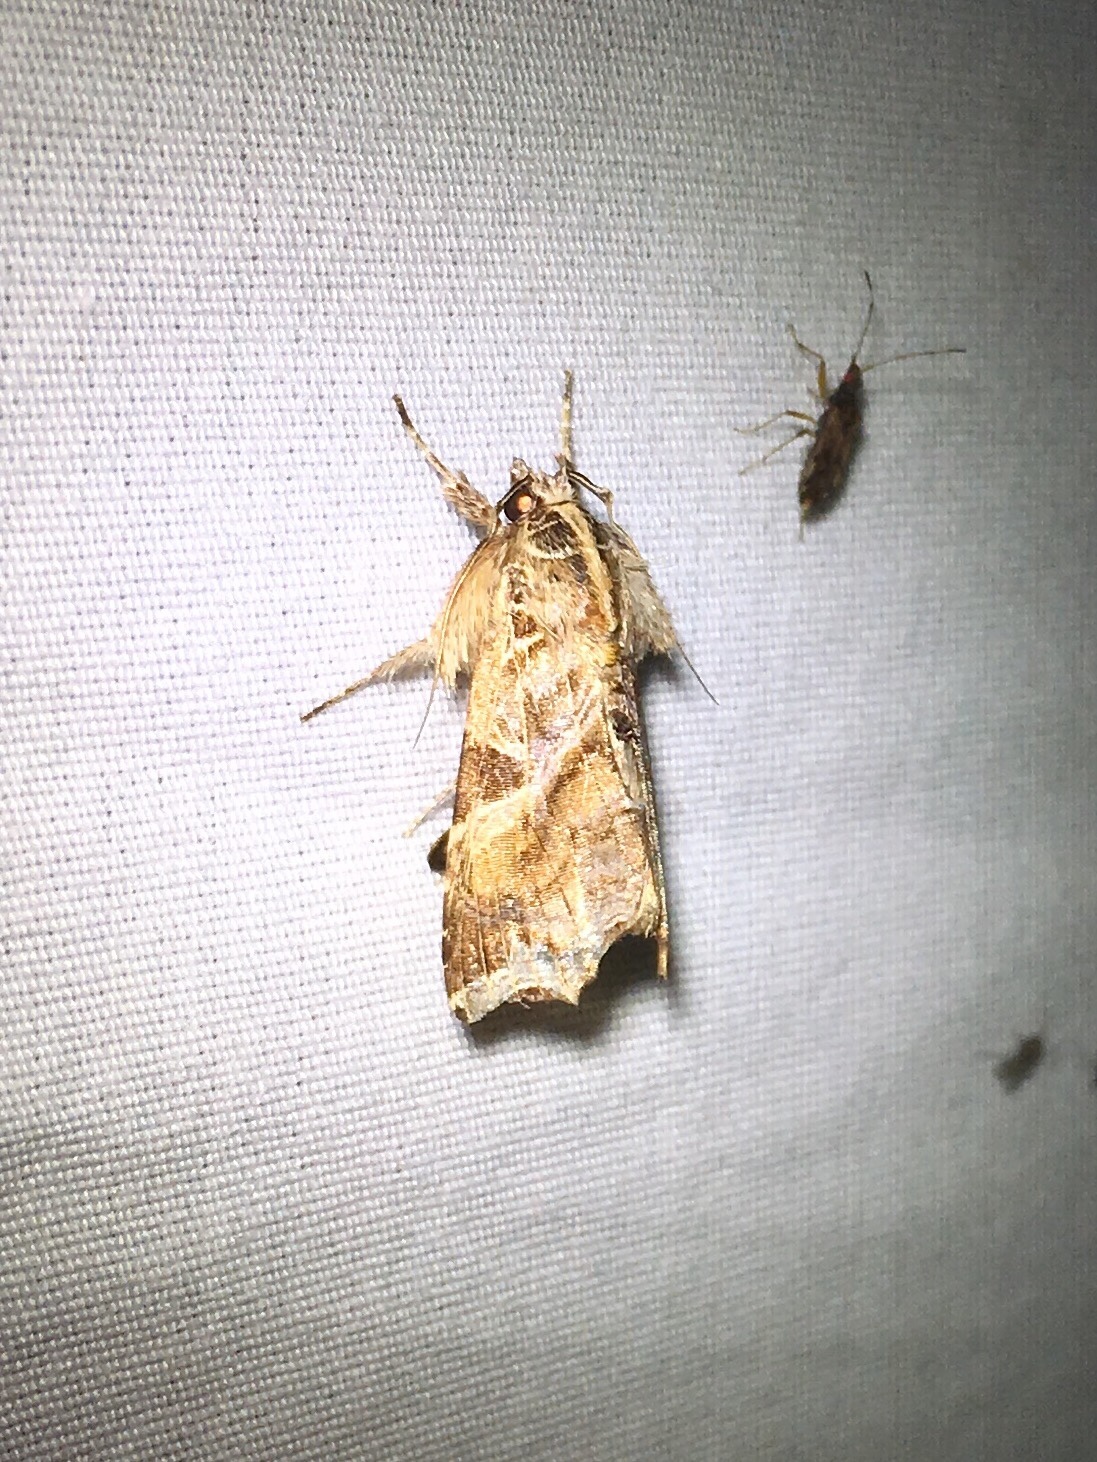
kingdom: Animalia
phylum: Arthropoda
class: Insecta
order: Lepidoptera
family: Noctuidae
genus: Callopistria
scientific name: Callopistria floridensis
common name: Florida fern moth
